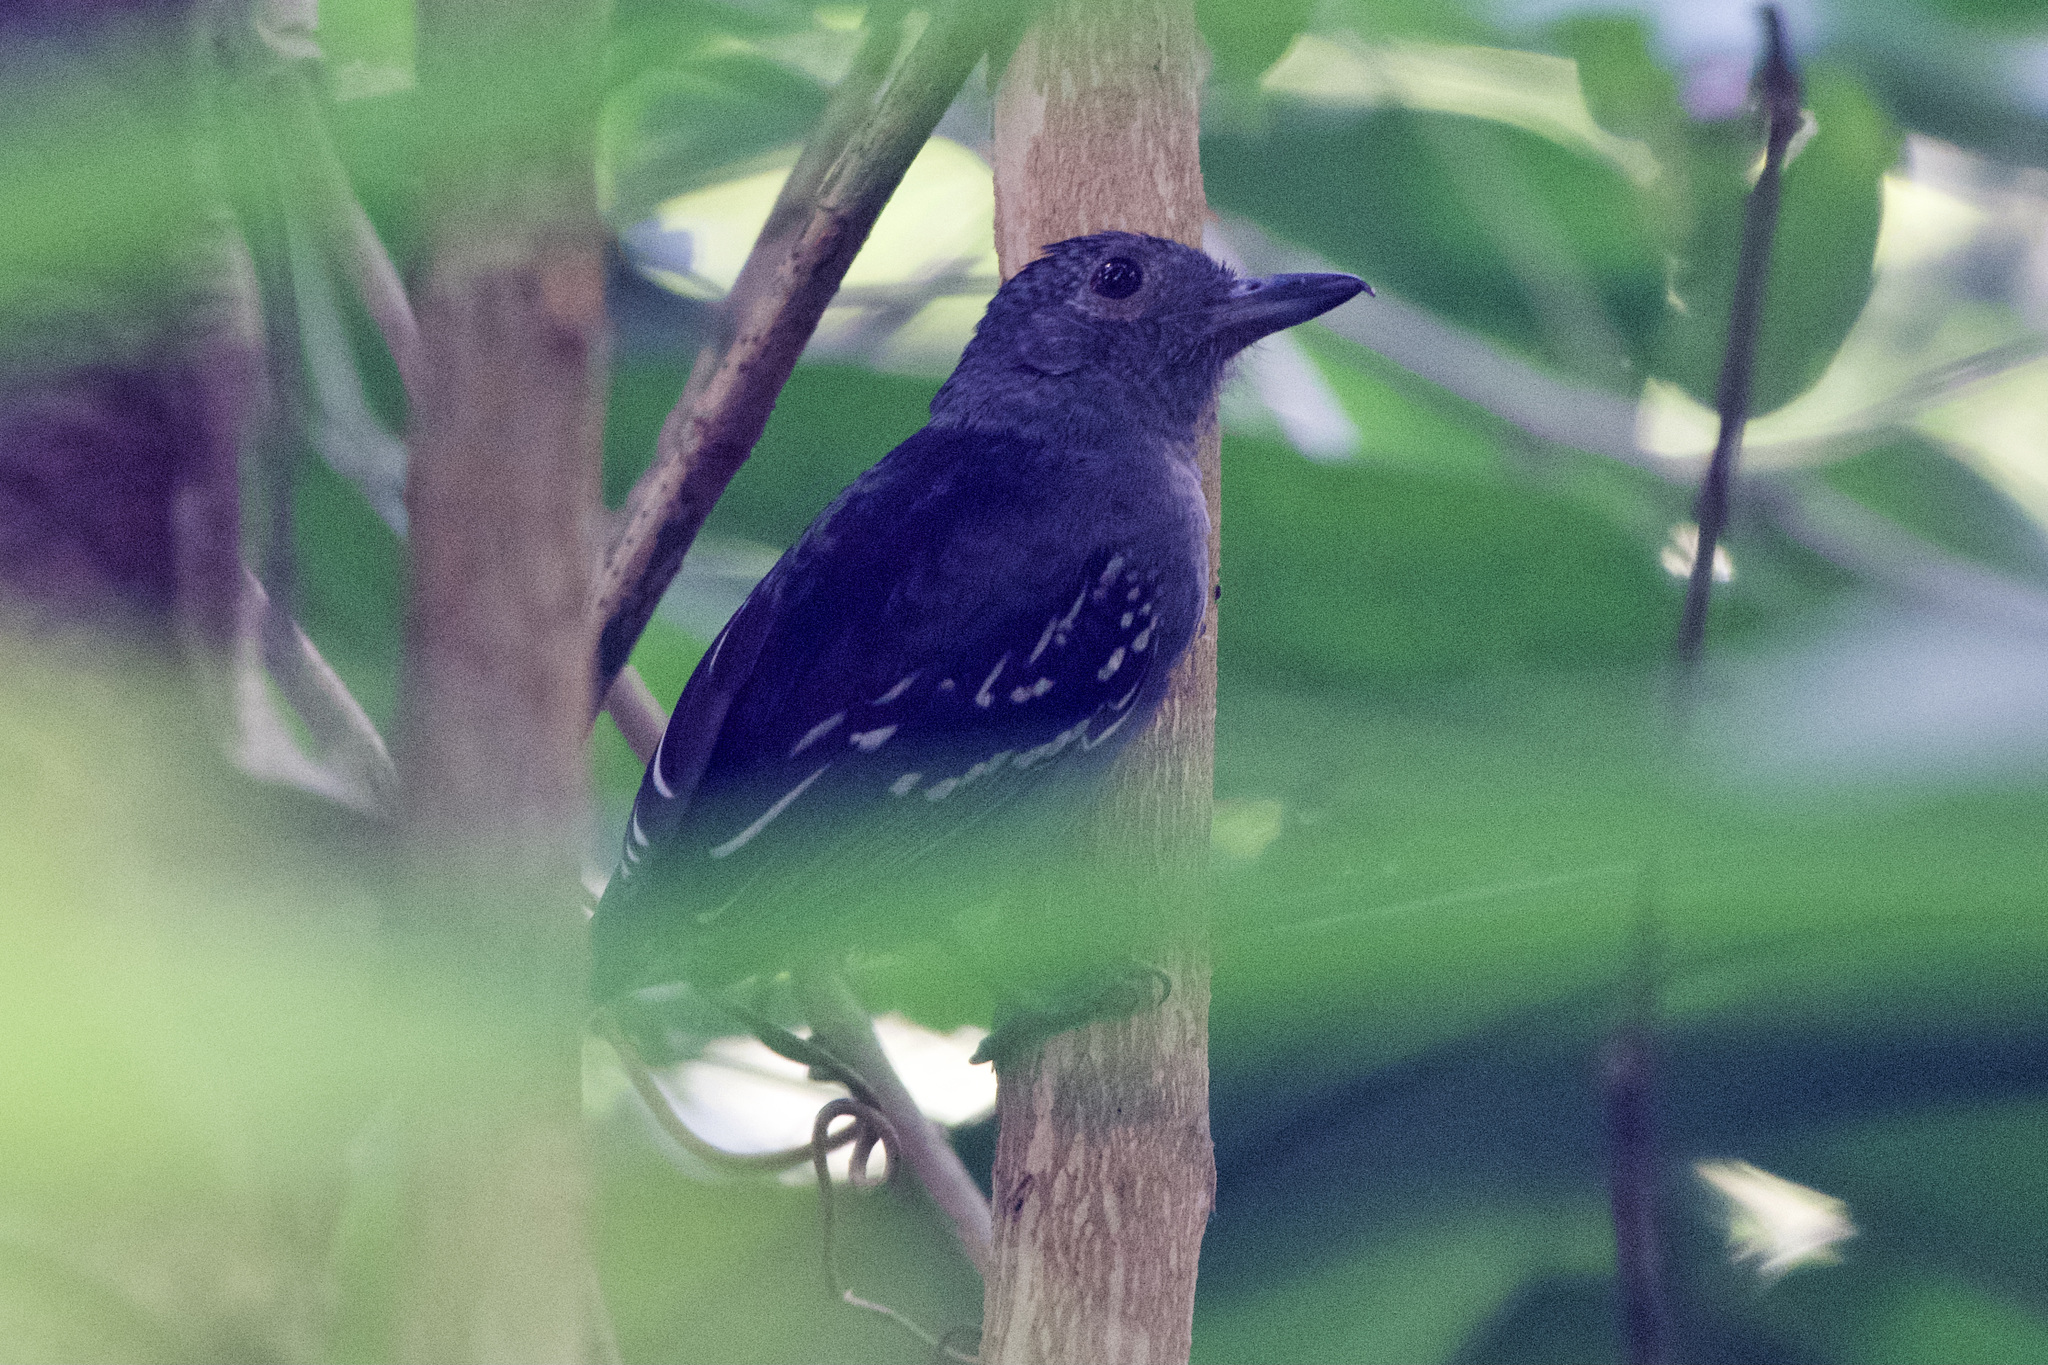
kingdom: Animalia
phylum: Chordata
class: Aves
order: Passeriformes
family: Thamnophilidae
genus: Thamnophilus
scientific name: Thamnophilus atrinucha
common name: Black-crowned antshrike
